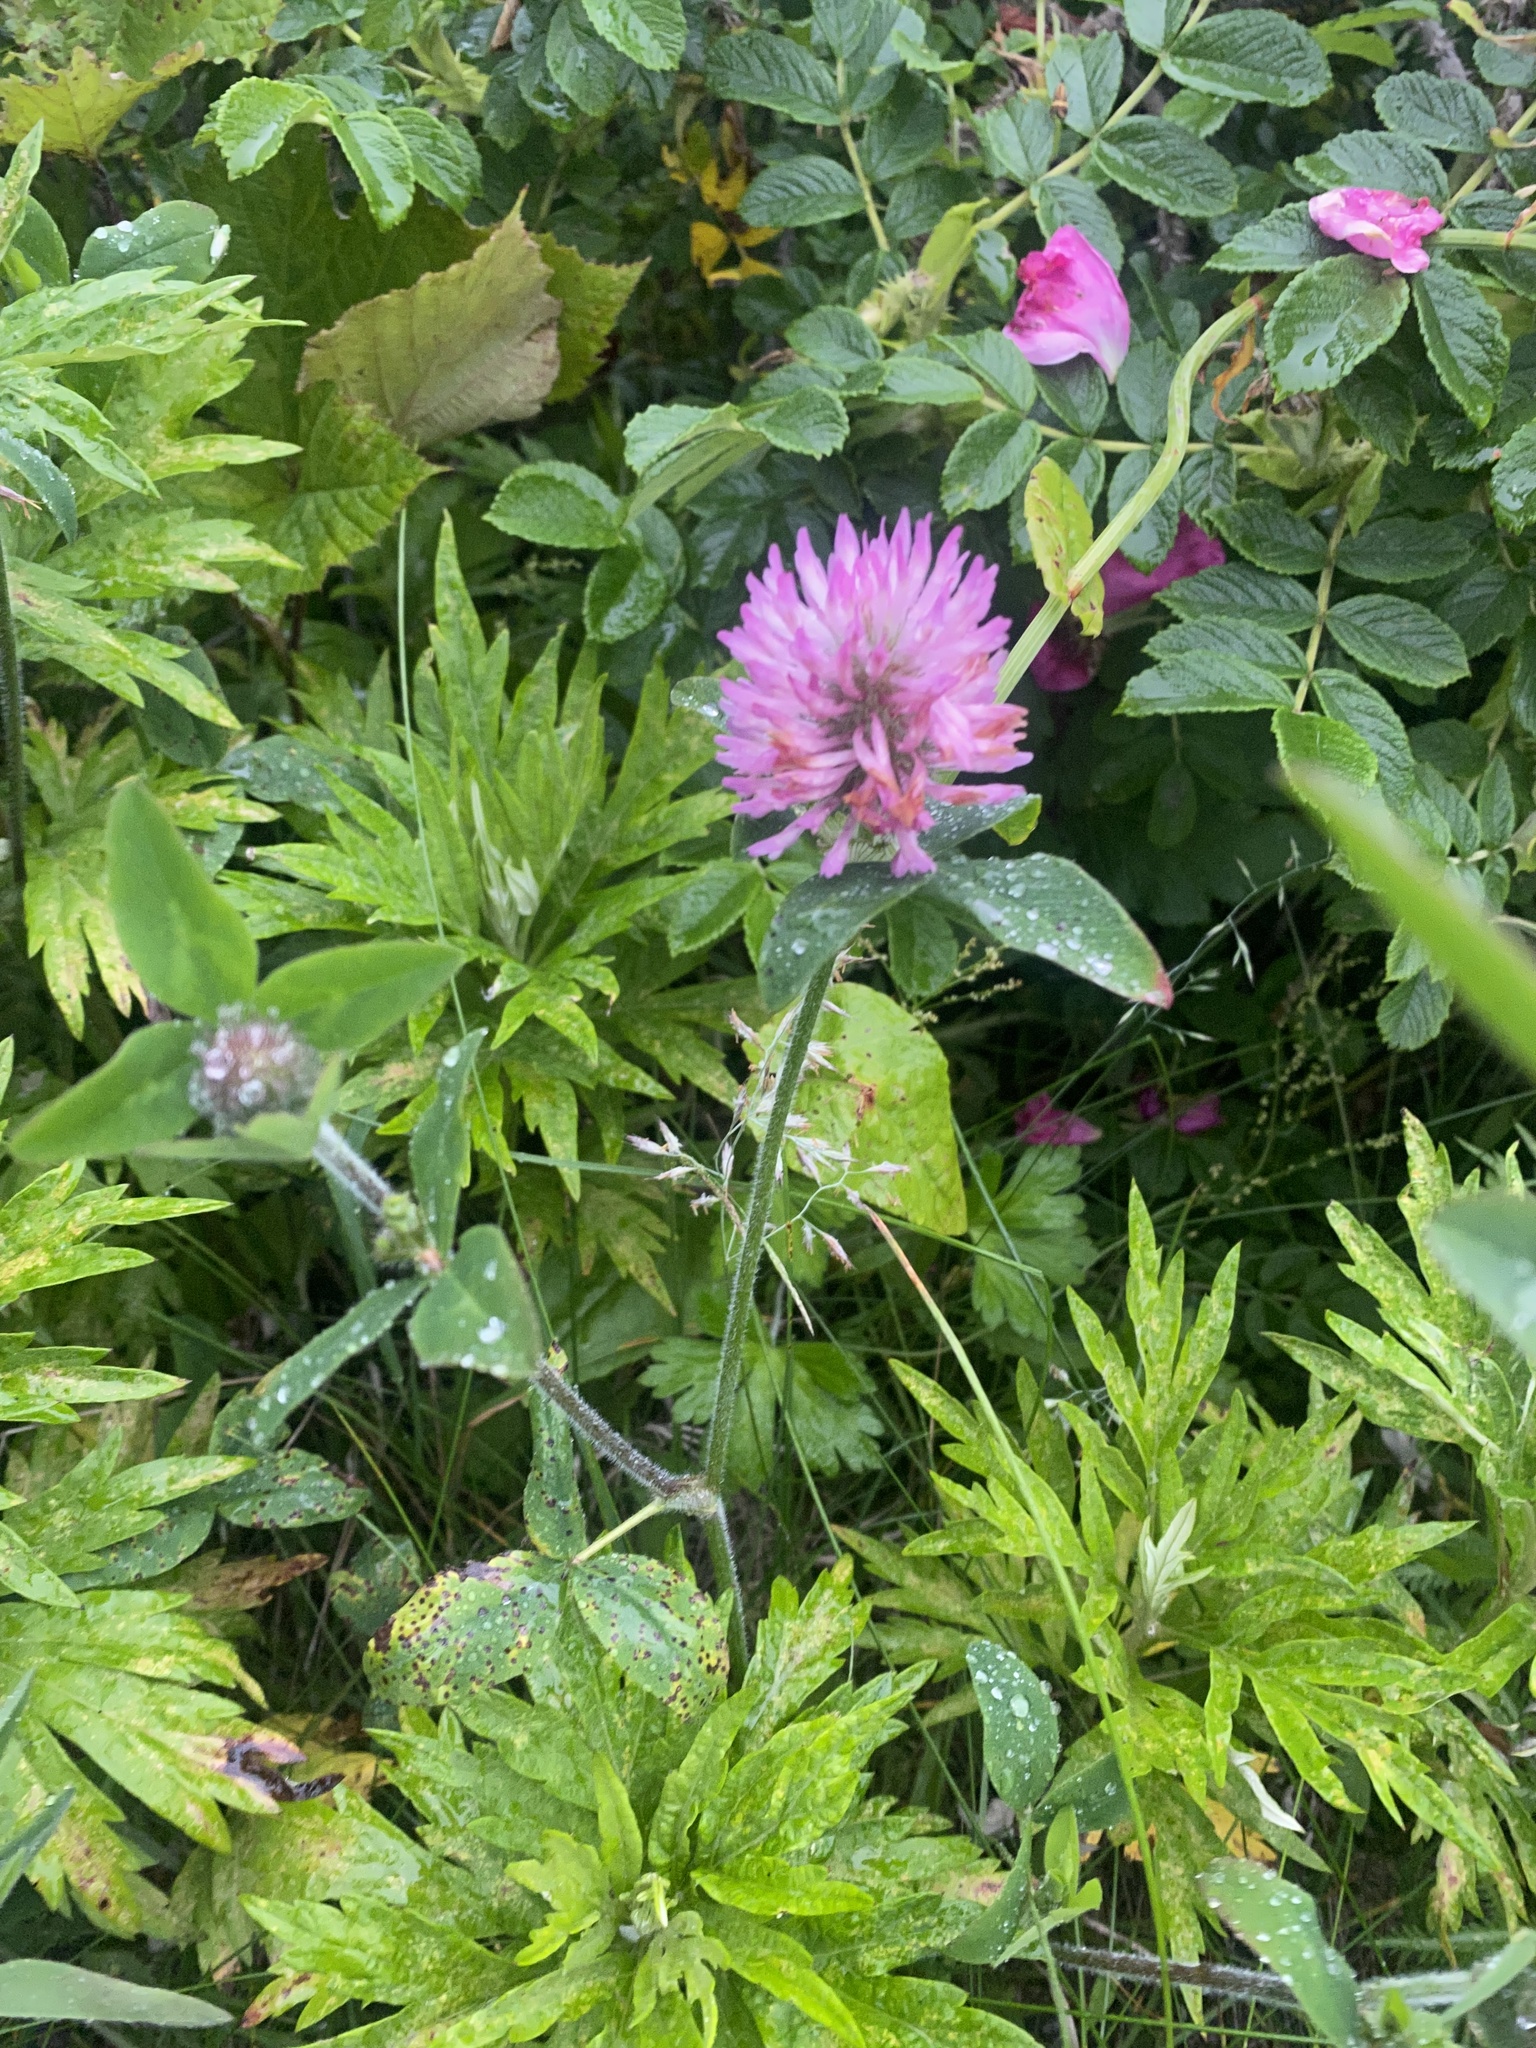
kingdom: Plantae
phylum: Tracheophyta
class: Magnoliopsida
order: Fabales
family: Fabaceae
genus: Trifolium
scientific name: Trifolium pratense
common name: Red clover
